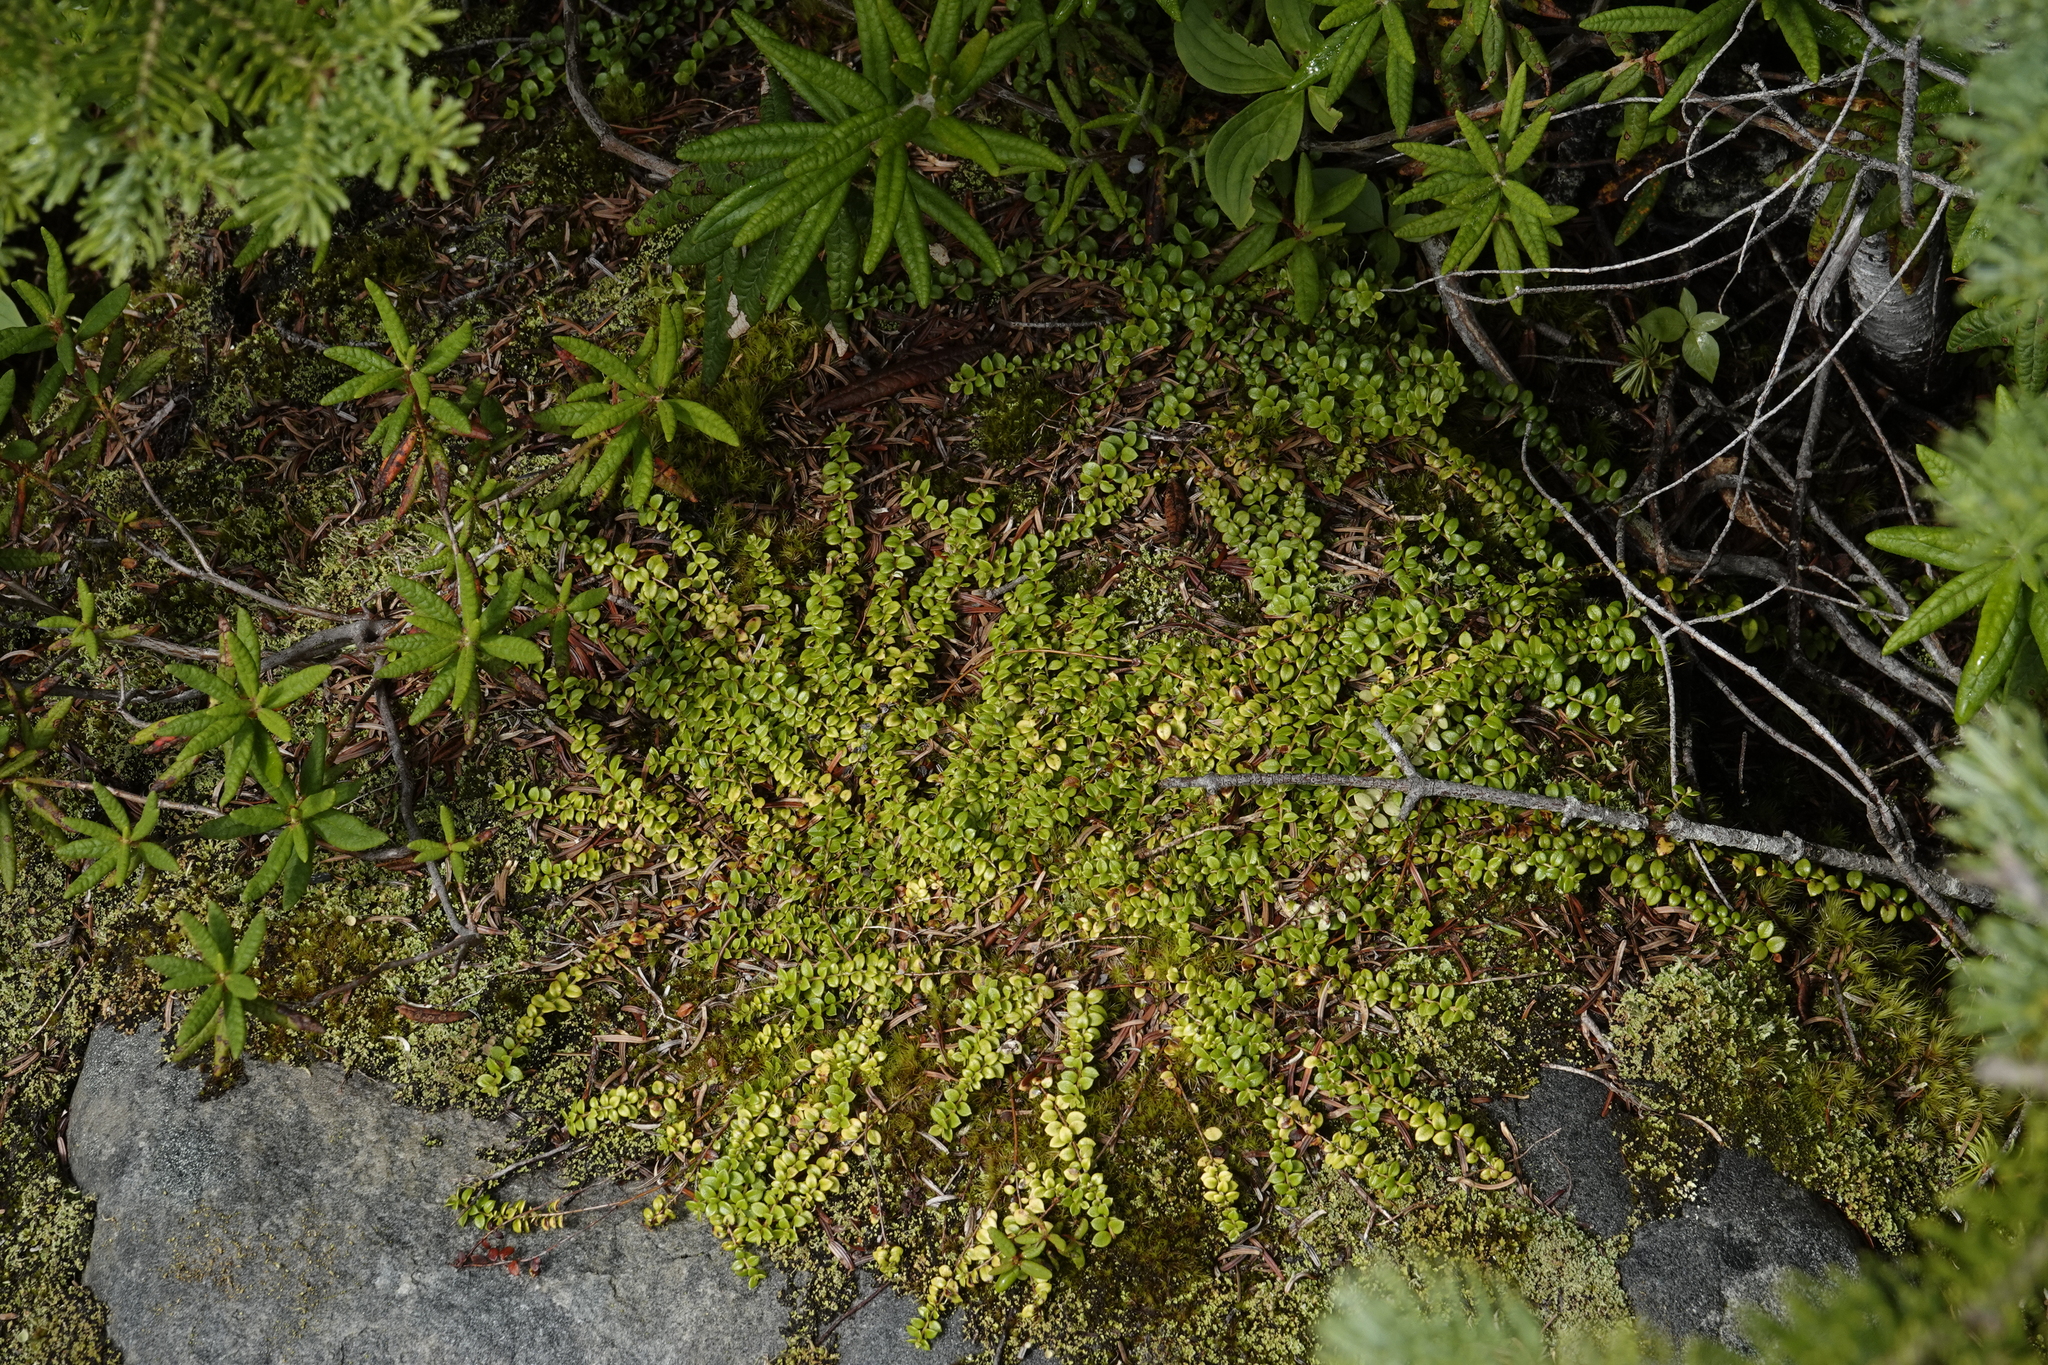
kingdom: Plantae
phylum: Tracheophyta
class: Magnoliopsida
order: Ericales
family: Ericaceae
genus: Gaultheria
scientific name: Gaultheria hispidula
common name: Cancer wintergreen
